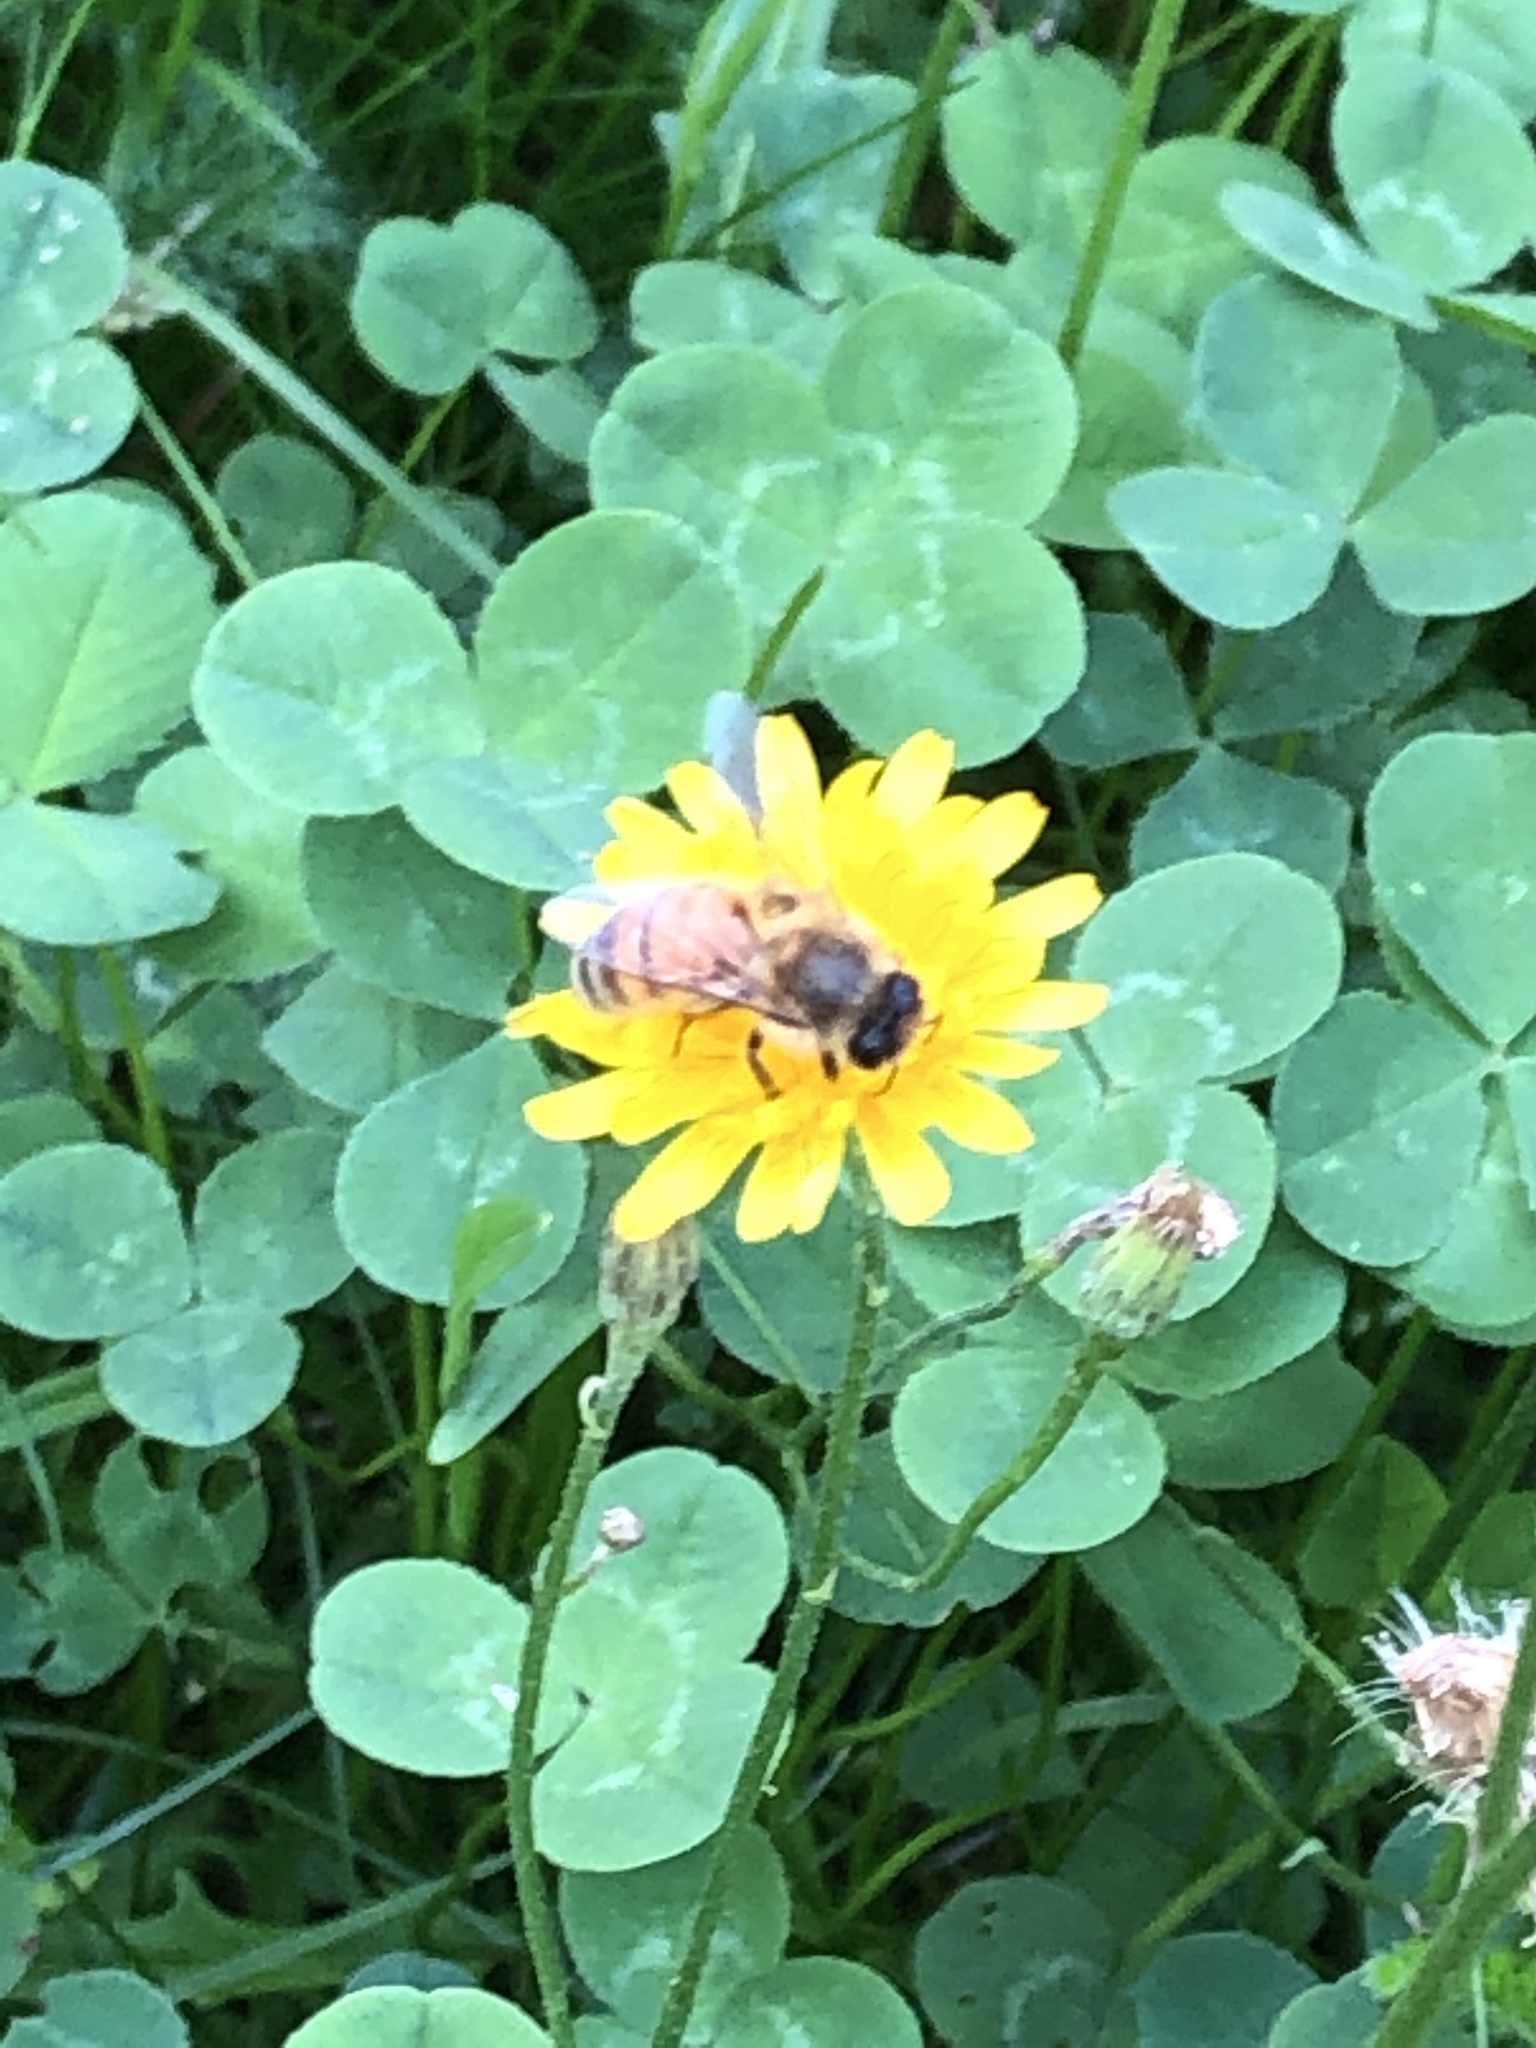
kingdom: Animalia
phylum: Arthropoda
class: Insecta
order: Hymenoptera
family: Apidae
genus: Apis
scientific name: Apis mellifera
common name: Honey bee
